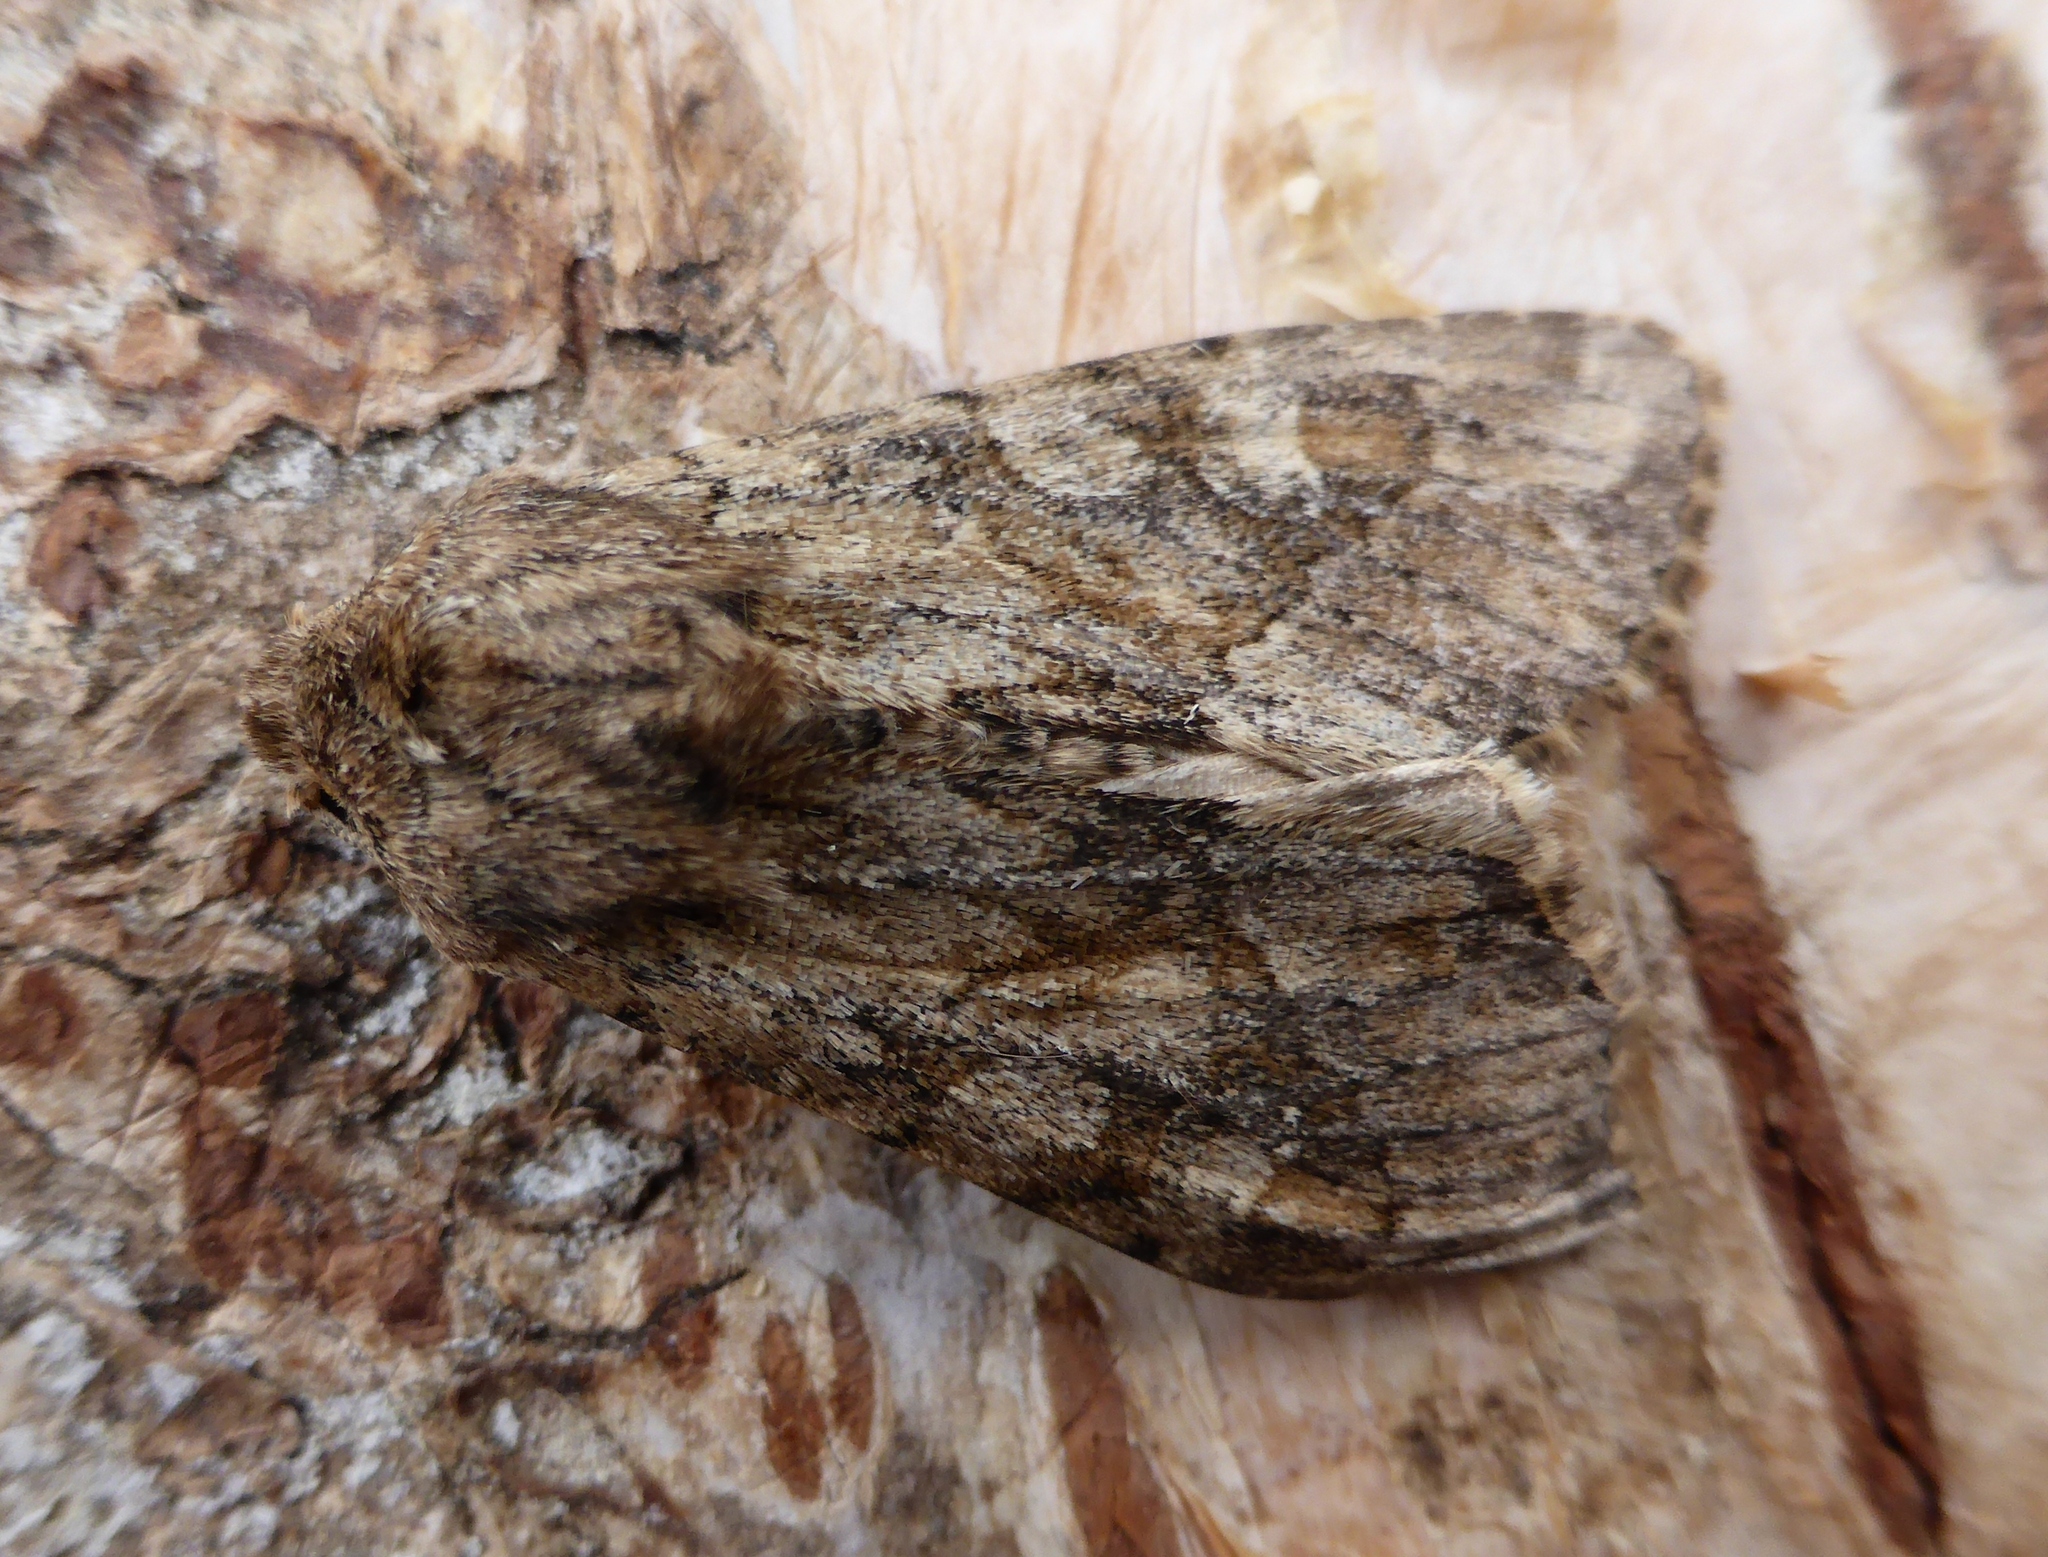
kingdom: Animalia
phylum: Arthropoda
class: Insecta
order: Lepidoptera
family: Noctuidae
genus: Apamea
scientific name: Apamea sordens
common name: Rustic shoulder-knot
